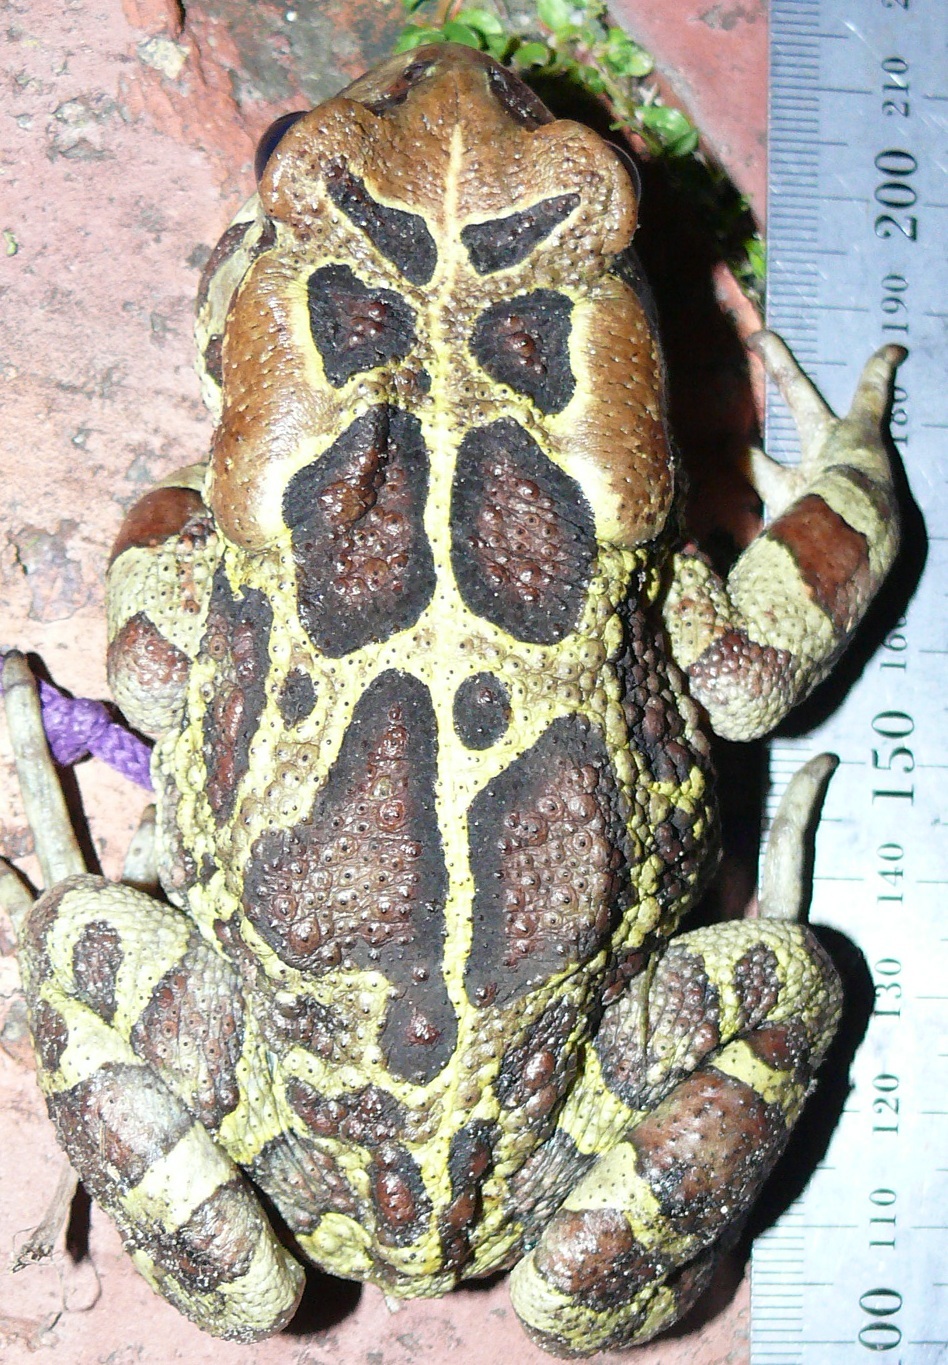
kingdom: Animalia
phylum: Chordata
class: Amphibia
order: Anura
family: Bufonidae
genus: Sclerophrys
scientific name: Sclerophrys pantherina
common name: Panther toad
